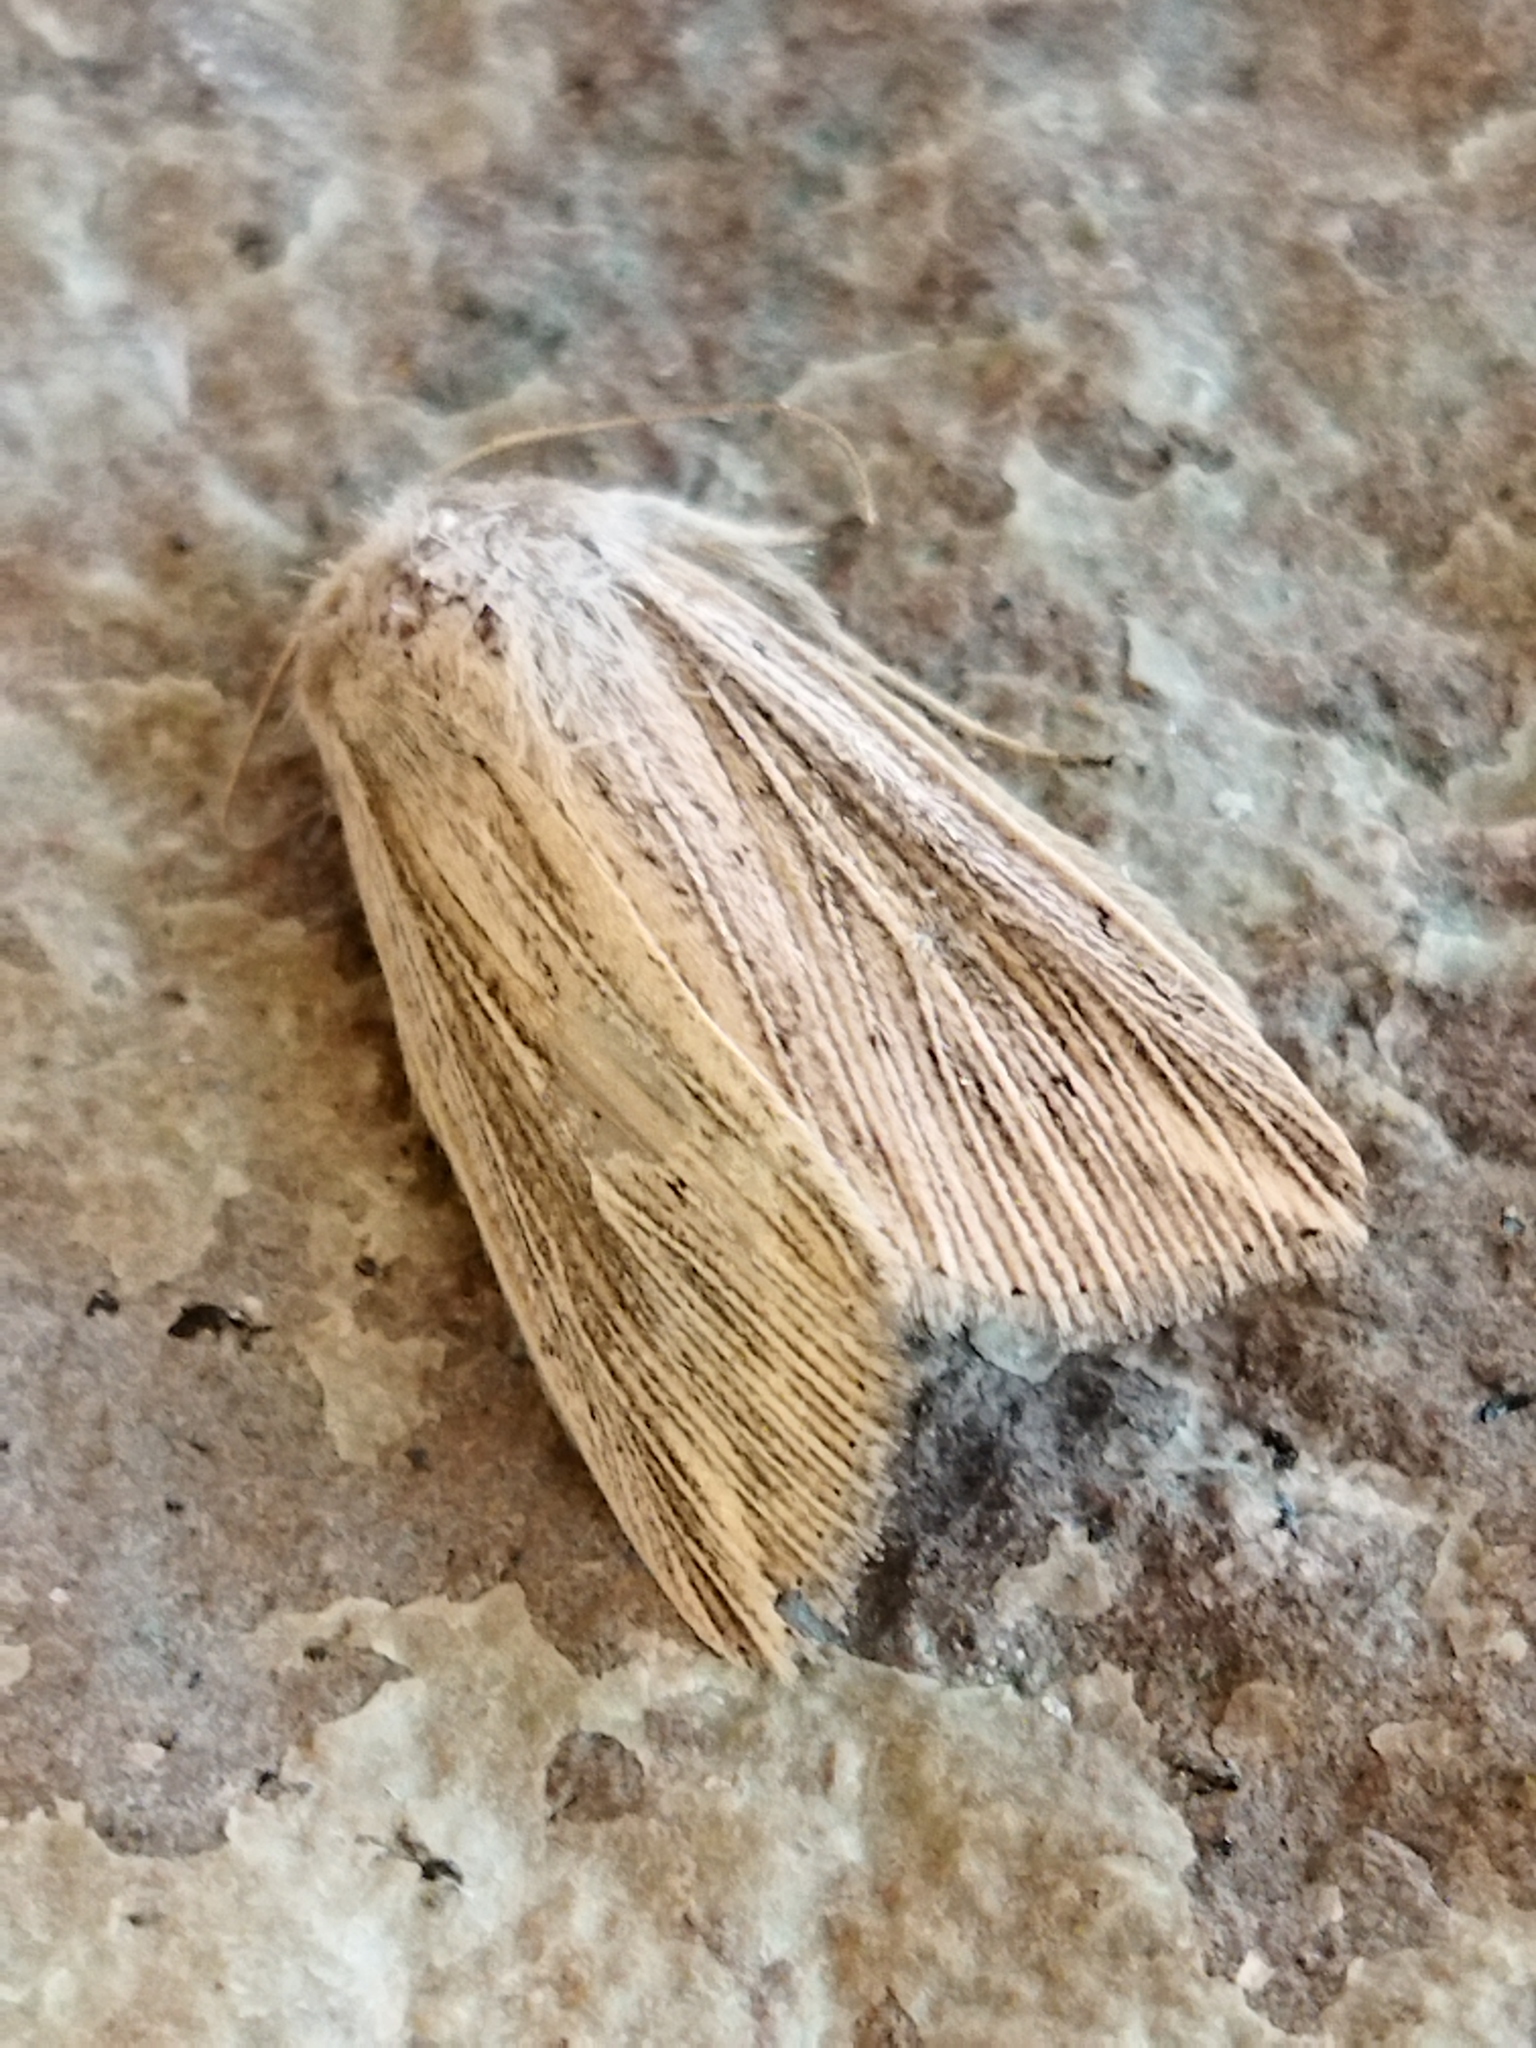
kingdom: Animalia
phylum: Arthropoda
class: Insecta
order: Lepidoptera
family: Noctuidae
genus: Mythimna
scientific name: Mythimna riparia
